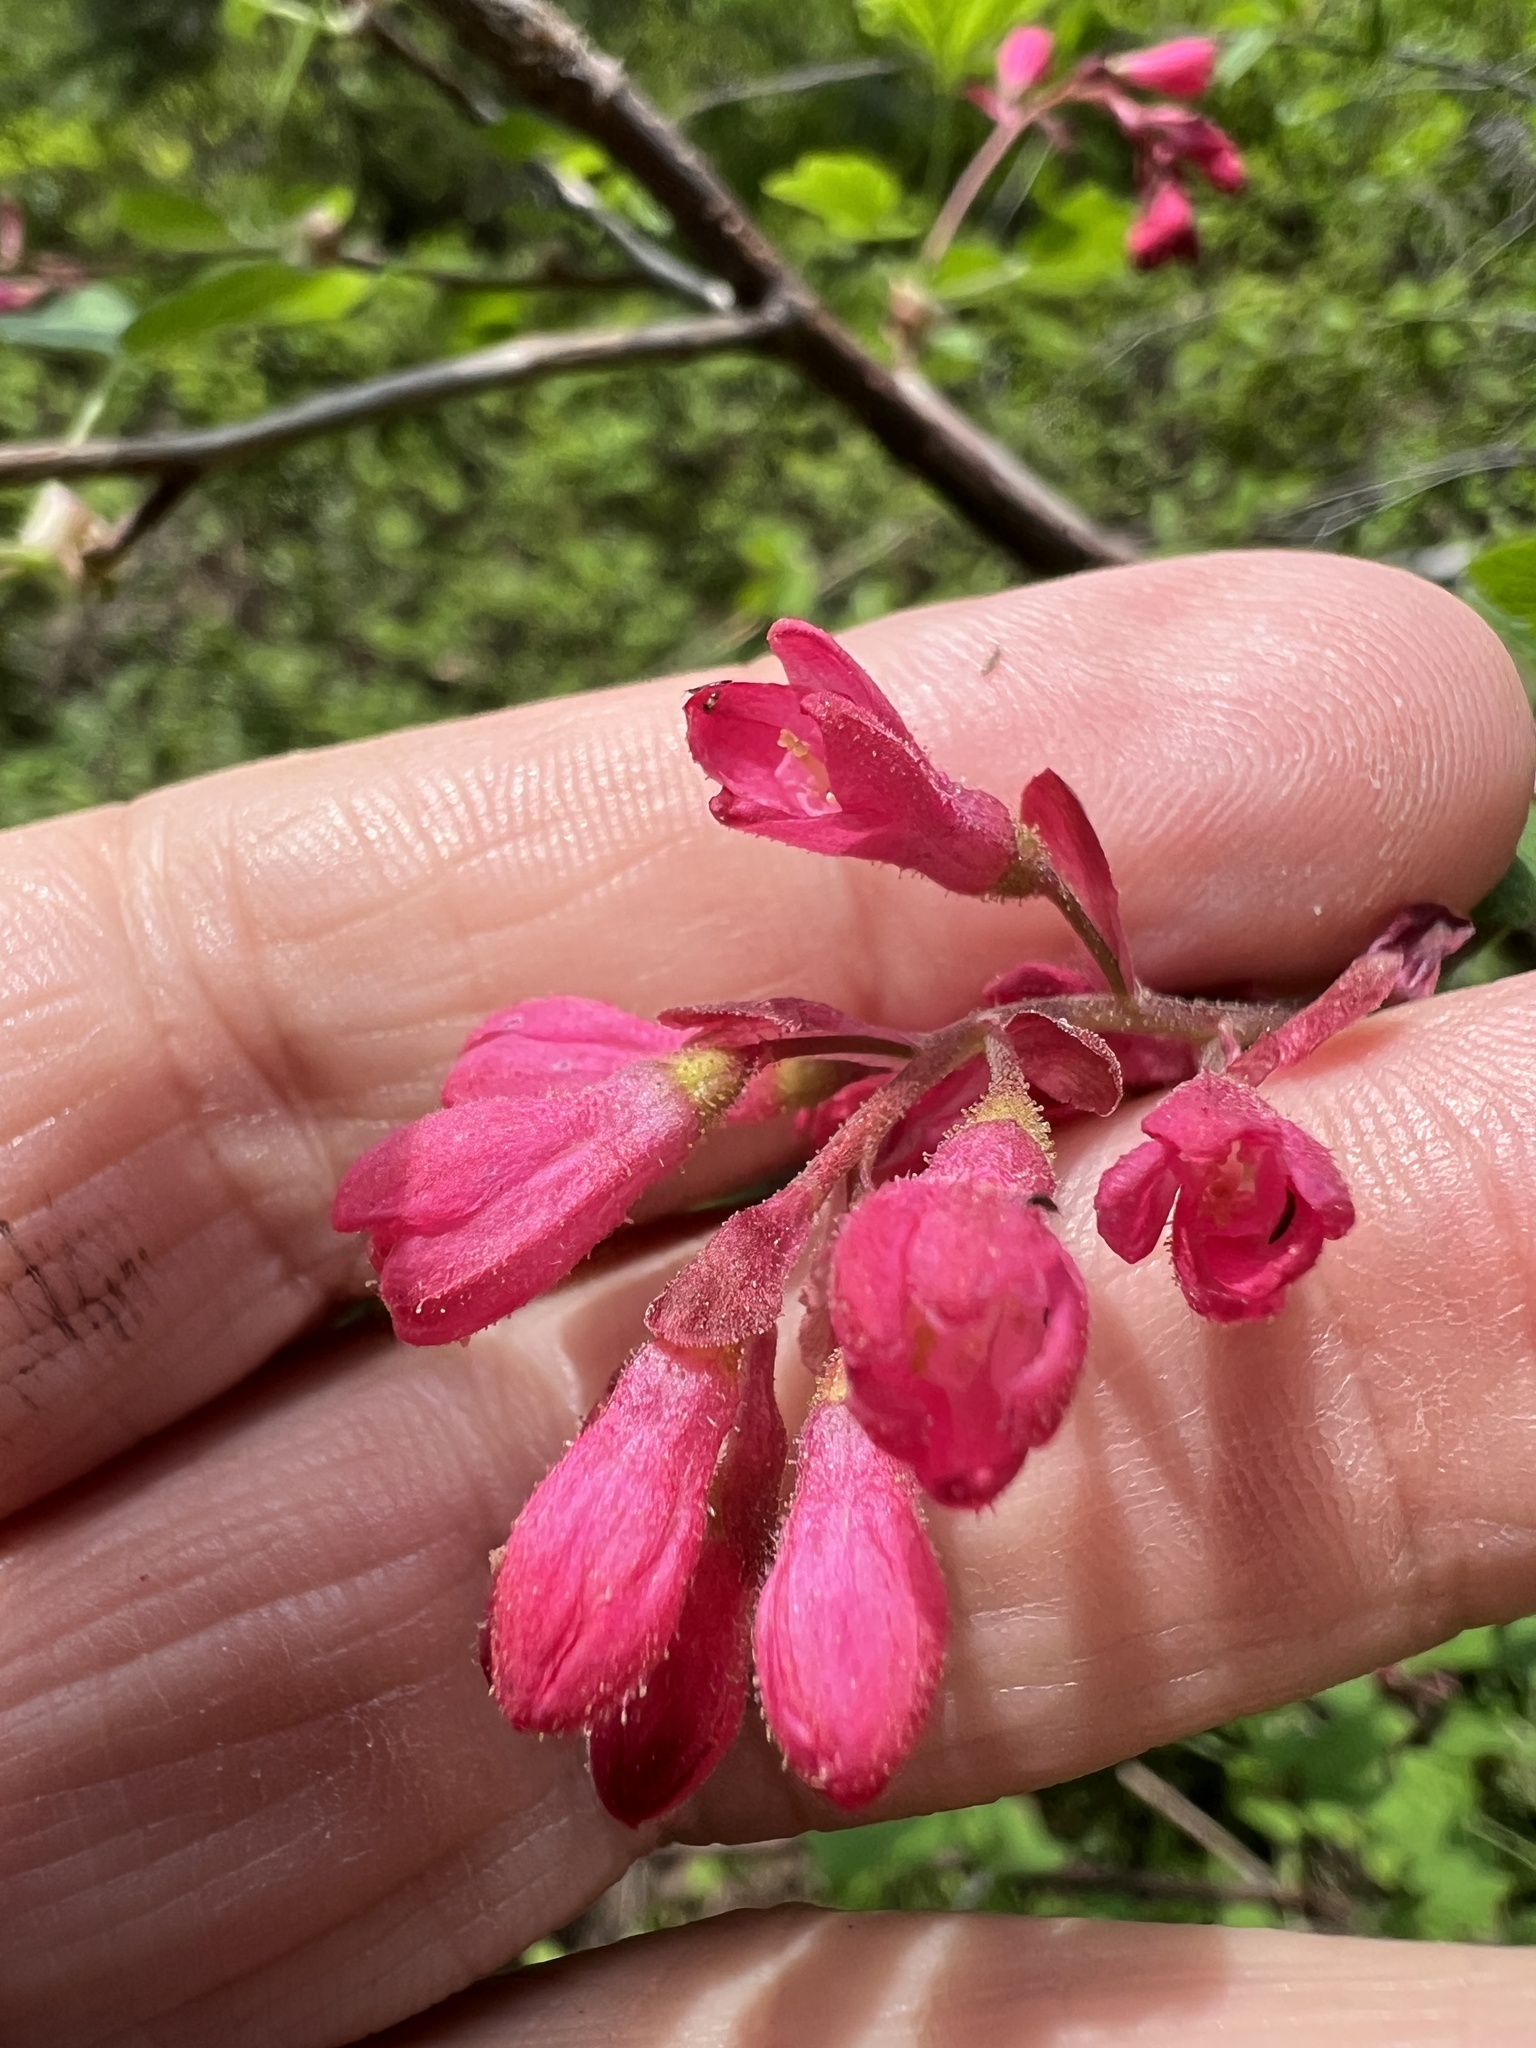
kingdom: Plantae
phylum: Tracheophyta
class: Magnoliopsida
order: Saxifragales
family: Grossulariaceae
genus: Ribes
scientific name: Ribes sanguineum
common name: Flowering currant
